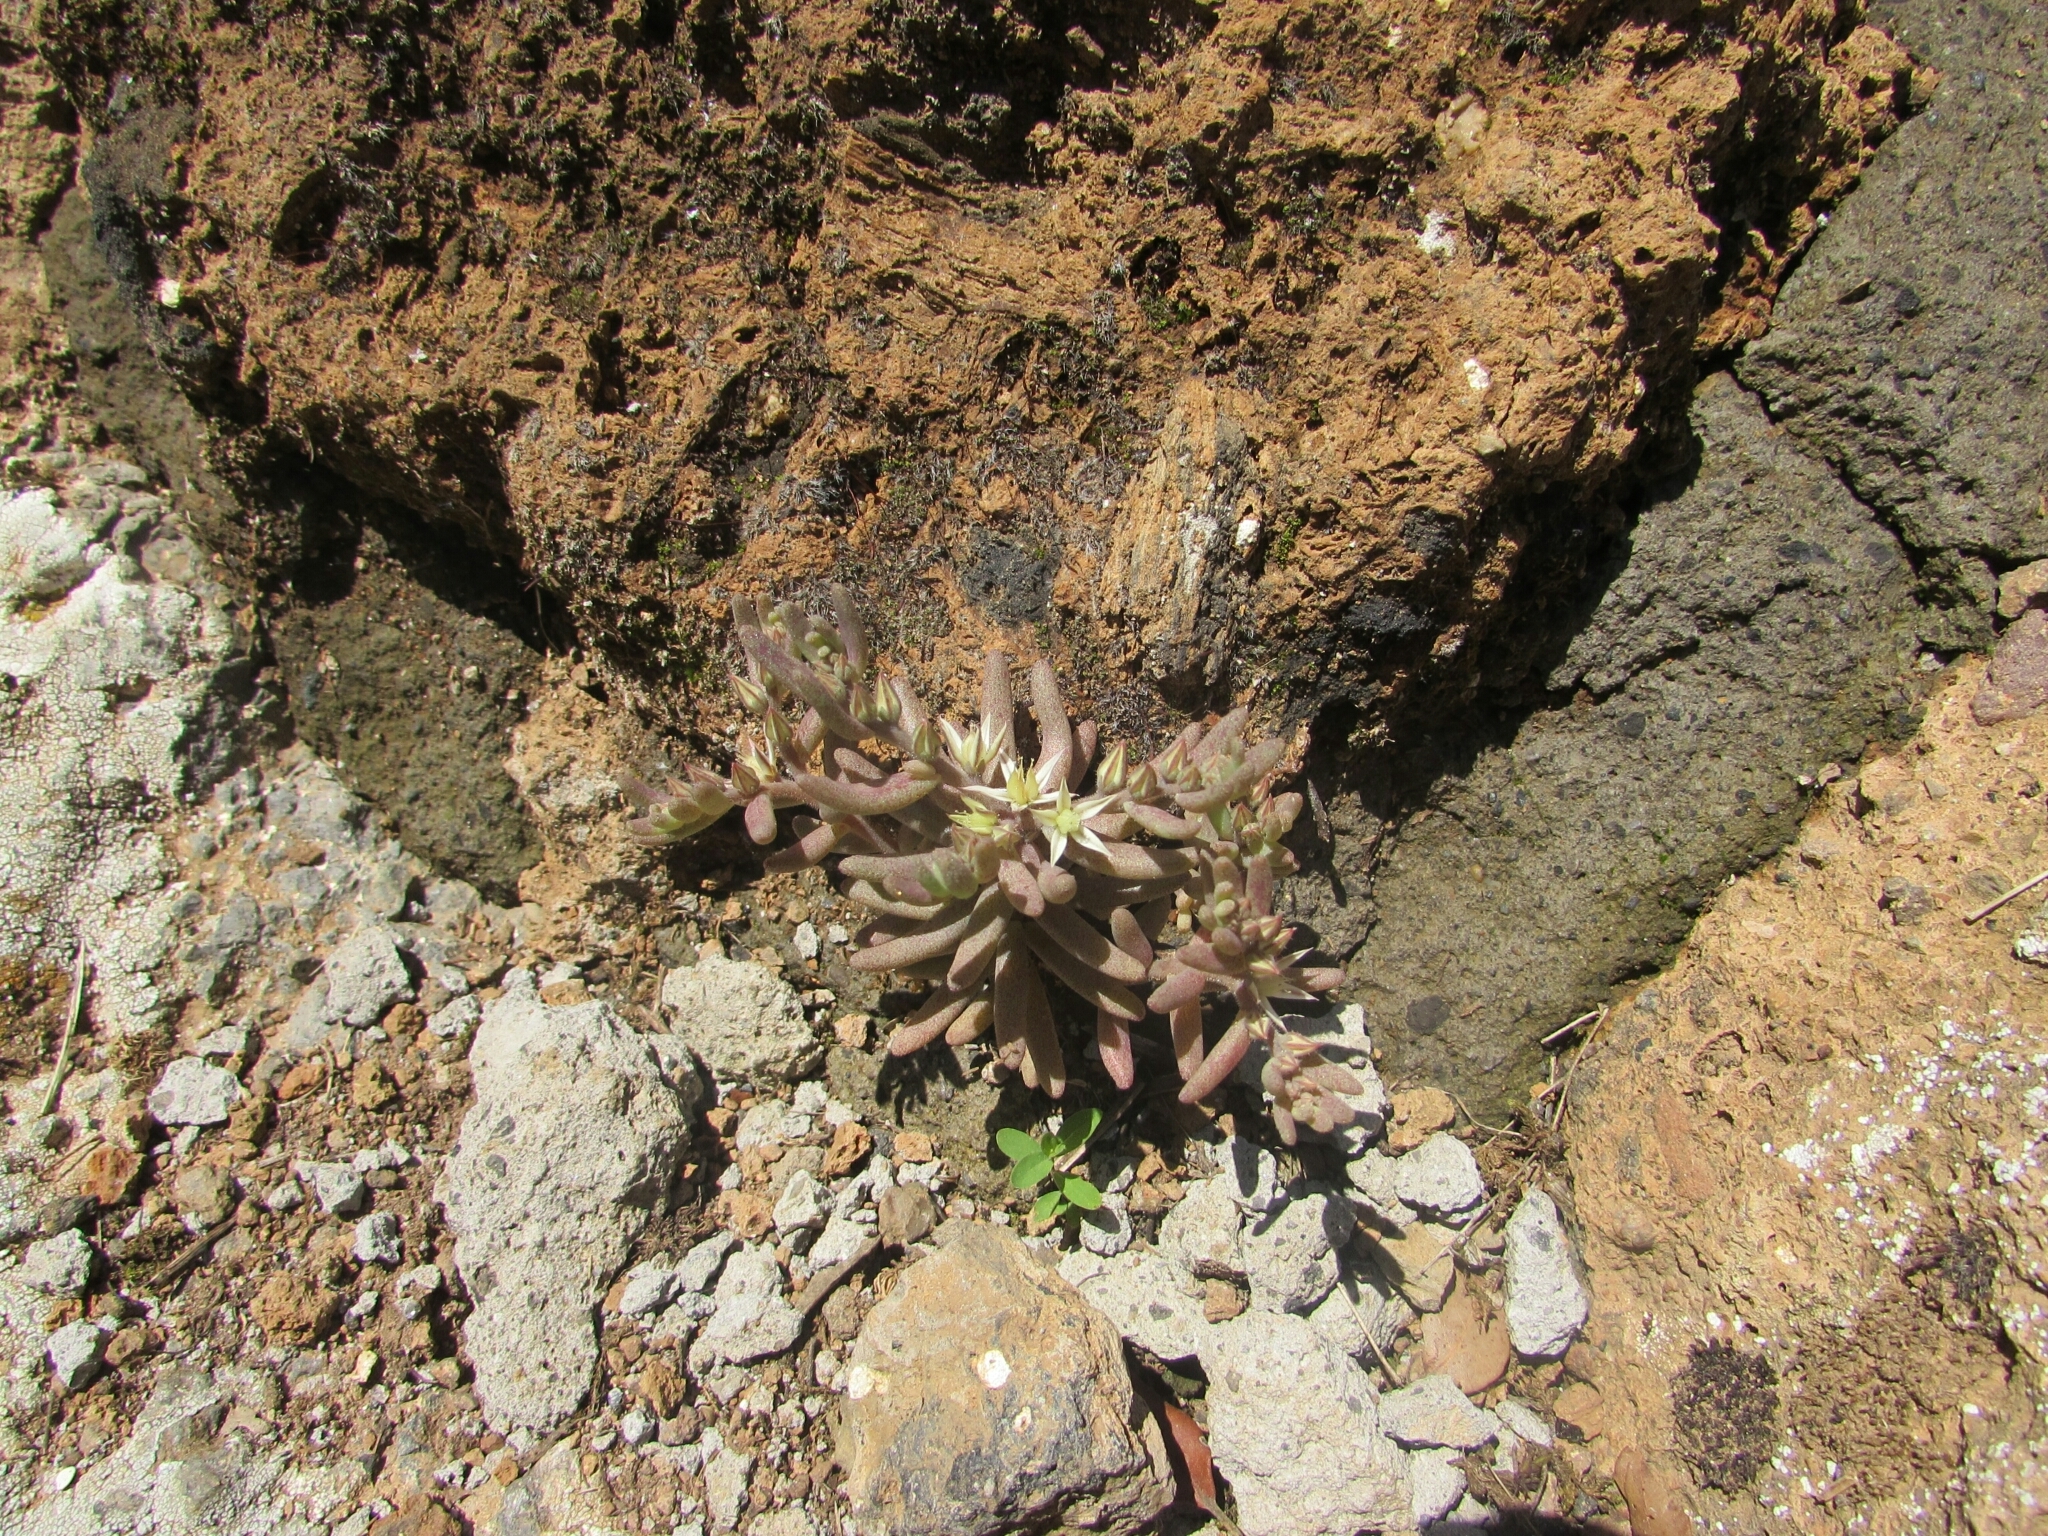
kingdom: Plantae
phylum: Tracheophyta
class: Magnoliopsida
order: Saxifragales
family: Crassulaceae
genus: Sedum
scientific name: Sedum rubens
